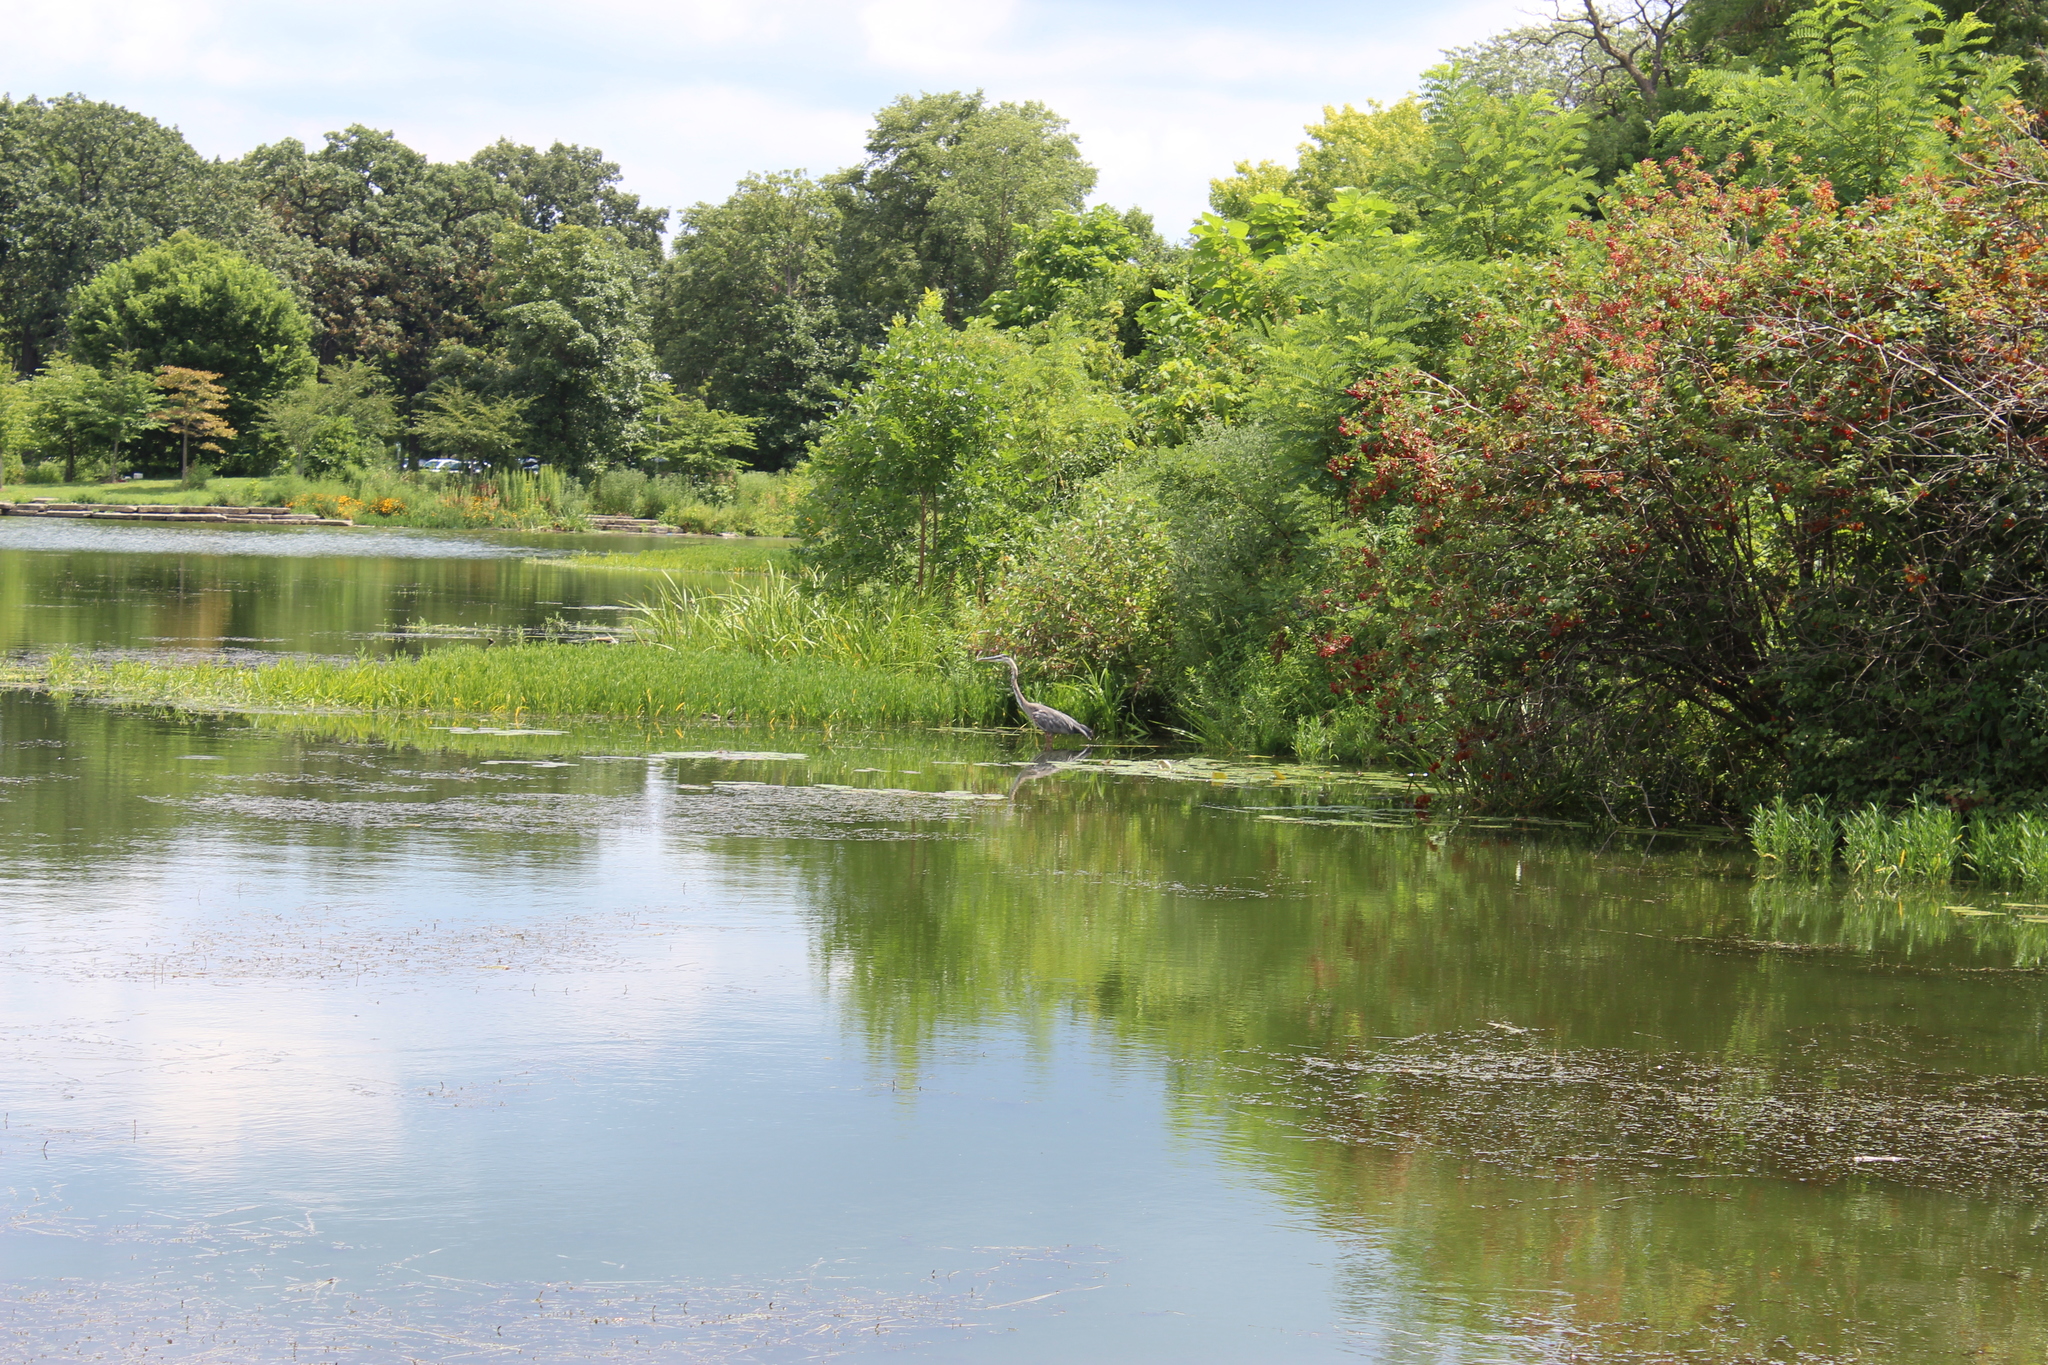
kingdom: Animalia
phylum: Chordata
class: Aves
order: Pelecaniformes
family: Ardeidae
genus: Ardea
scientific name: Ardea herodias
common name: Great blue heron
